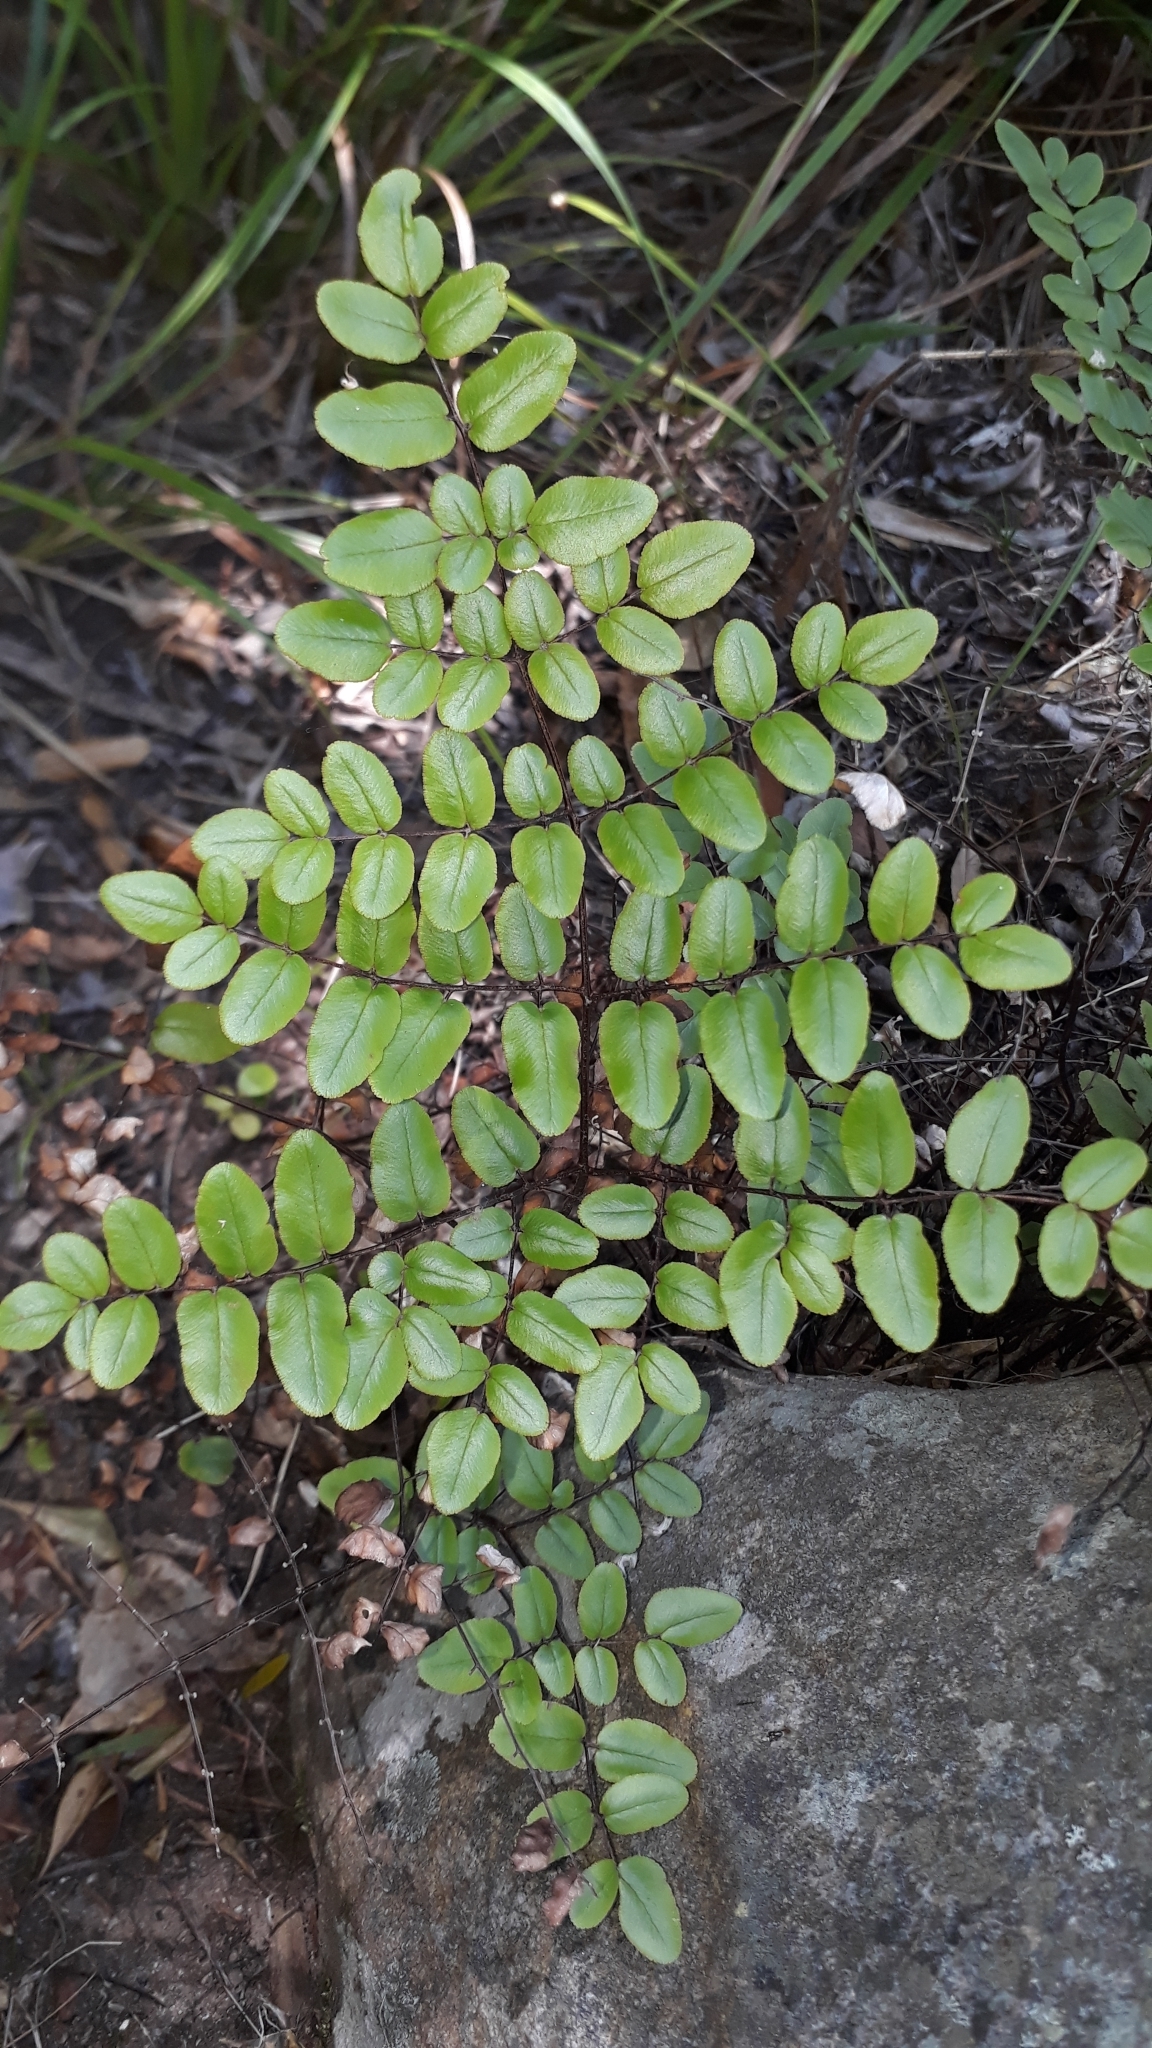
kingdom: Plantae
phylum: Tracheophyta
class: Polypodiopsida
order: Polypodiales
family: Pteridaceae
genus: Pellaea
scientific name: Pellaea pteroides
